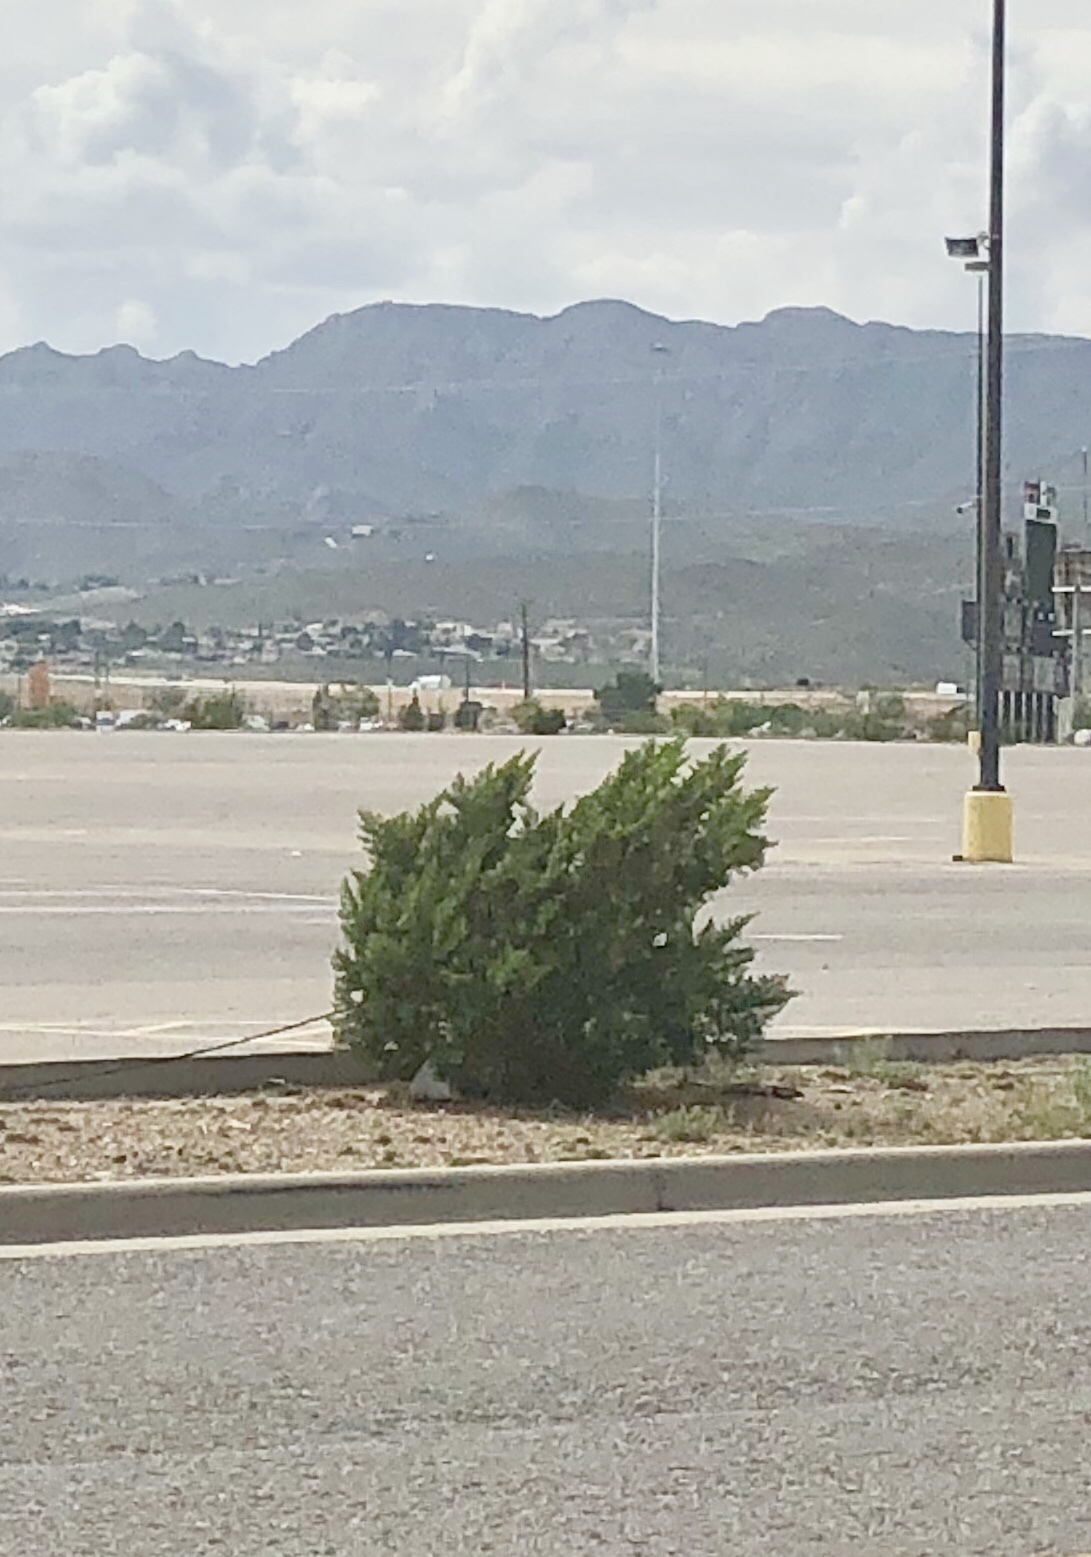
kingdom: Plantae
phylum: Tracheophyta
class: Magnoliopsida
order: Zygophyllales
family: Zygophyllaceae
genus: Larrea
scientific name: Larrea tridentata
